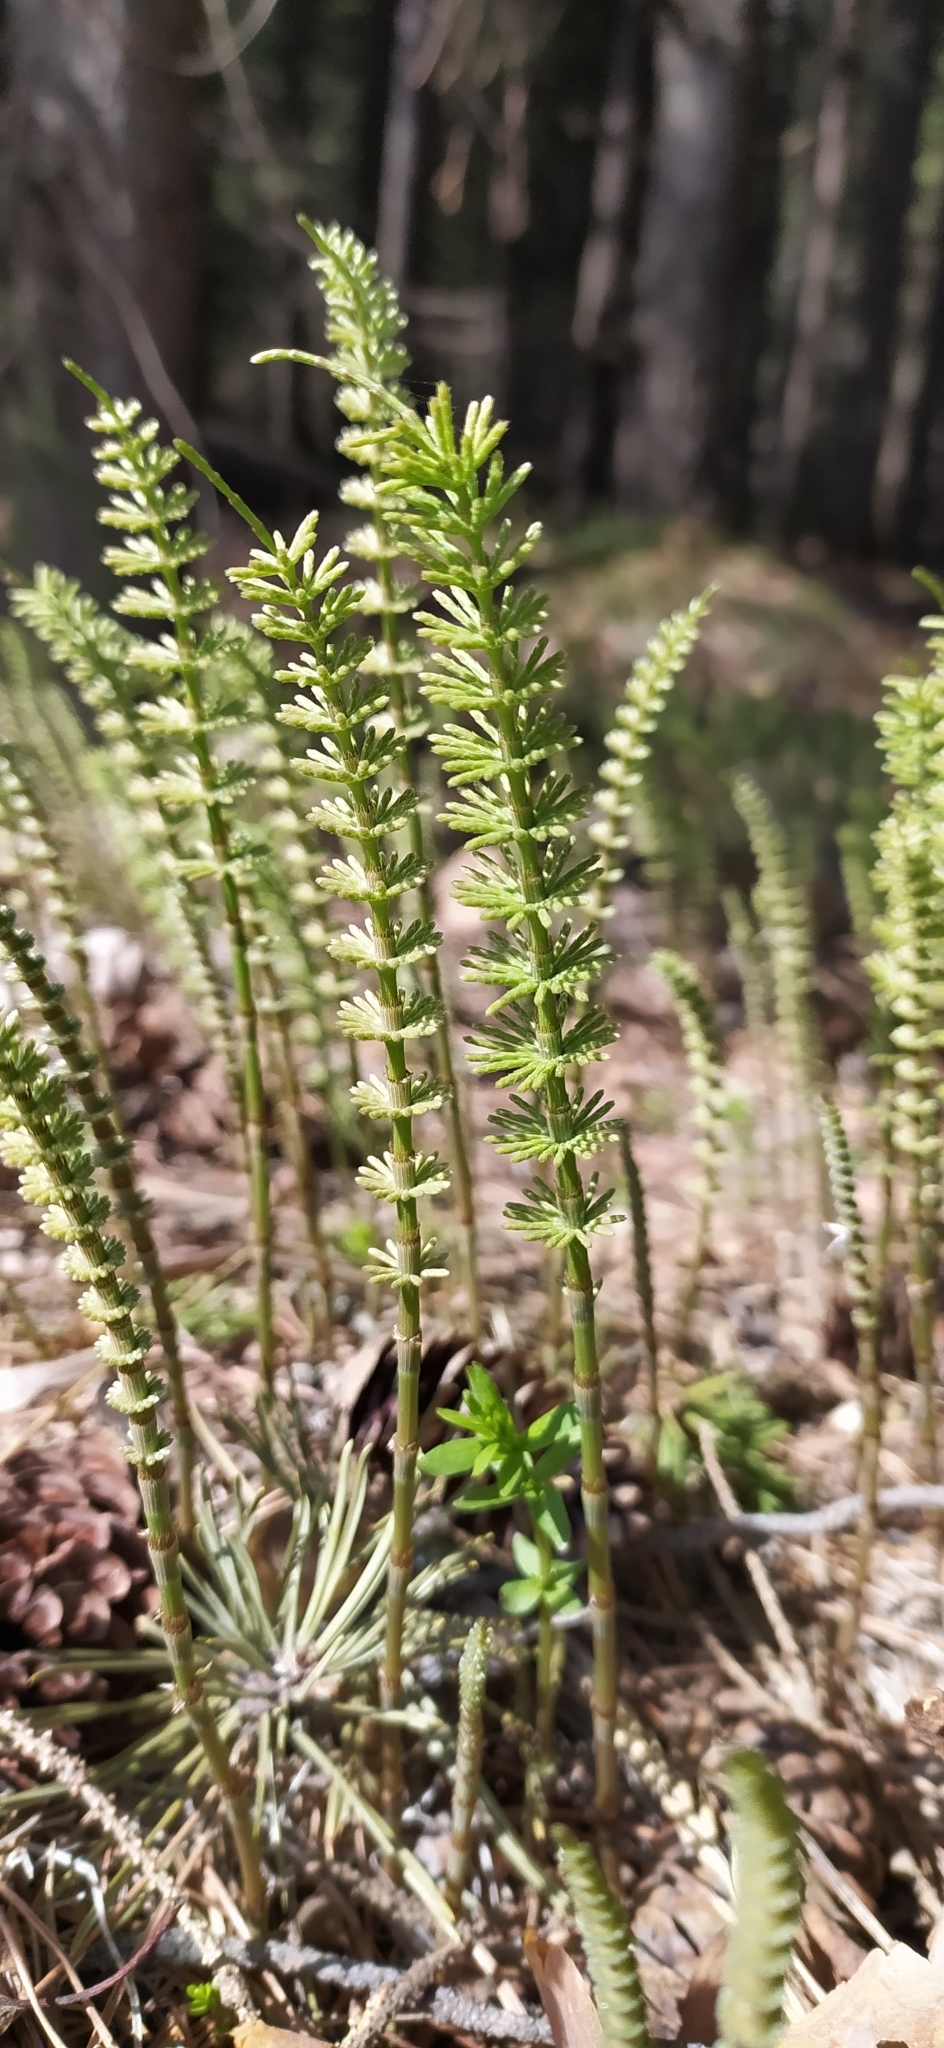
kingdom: Plantae
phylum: Tracheophyta
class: Polypodiopsida
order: Equisetales
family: Equisetaceae
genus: Equisetum
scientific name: Equisetum pratense
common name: Meadow horsetail
